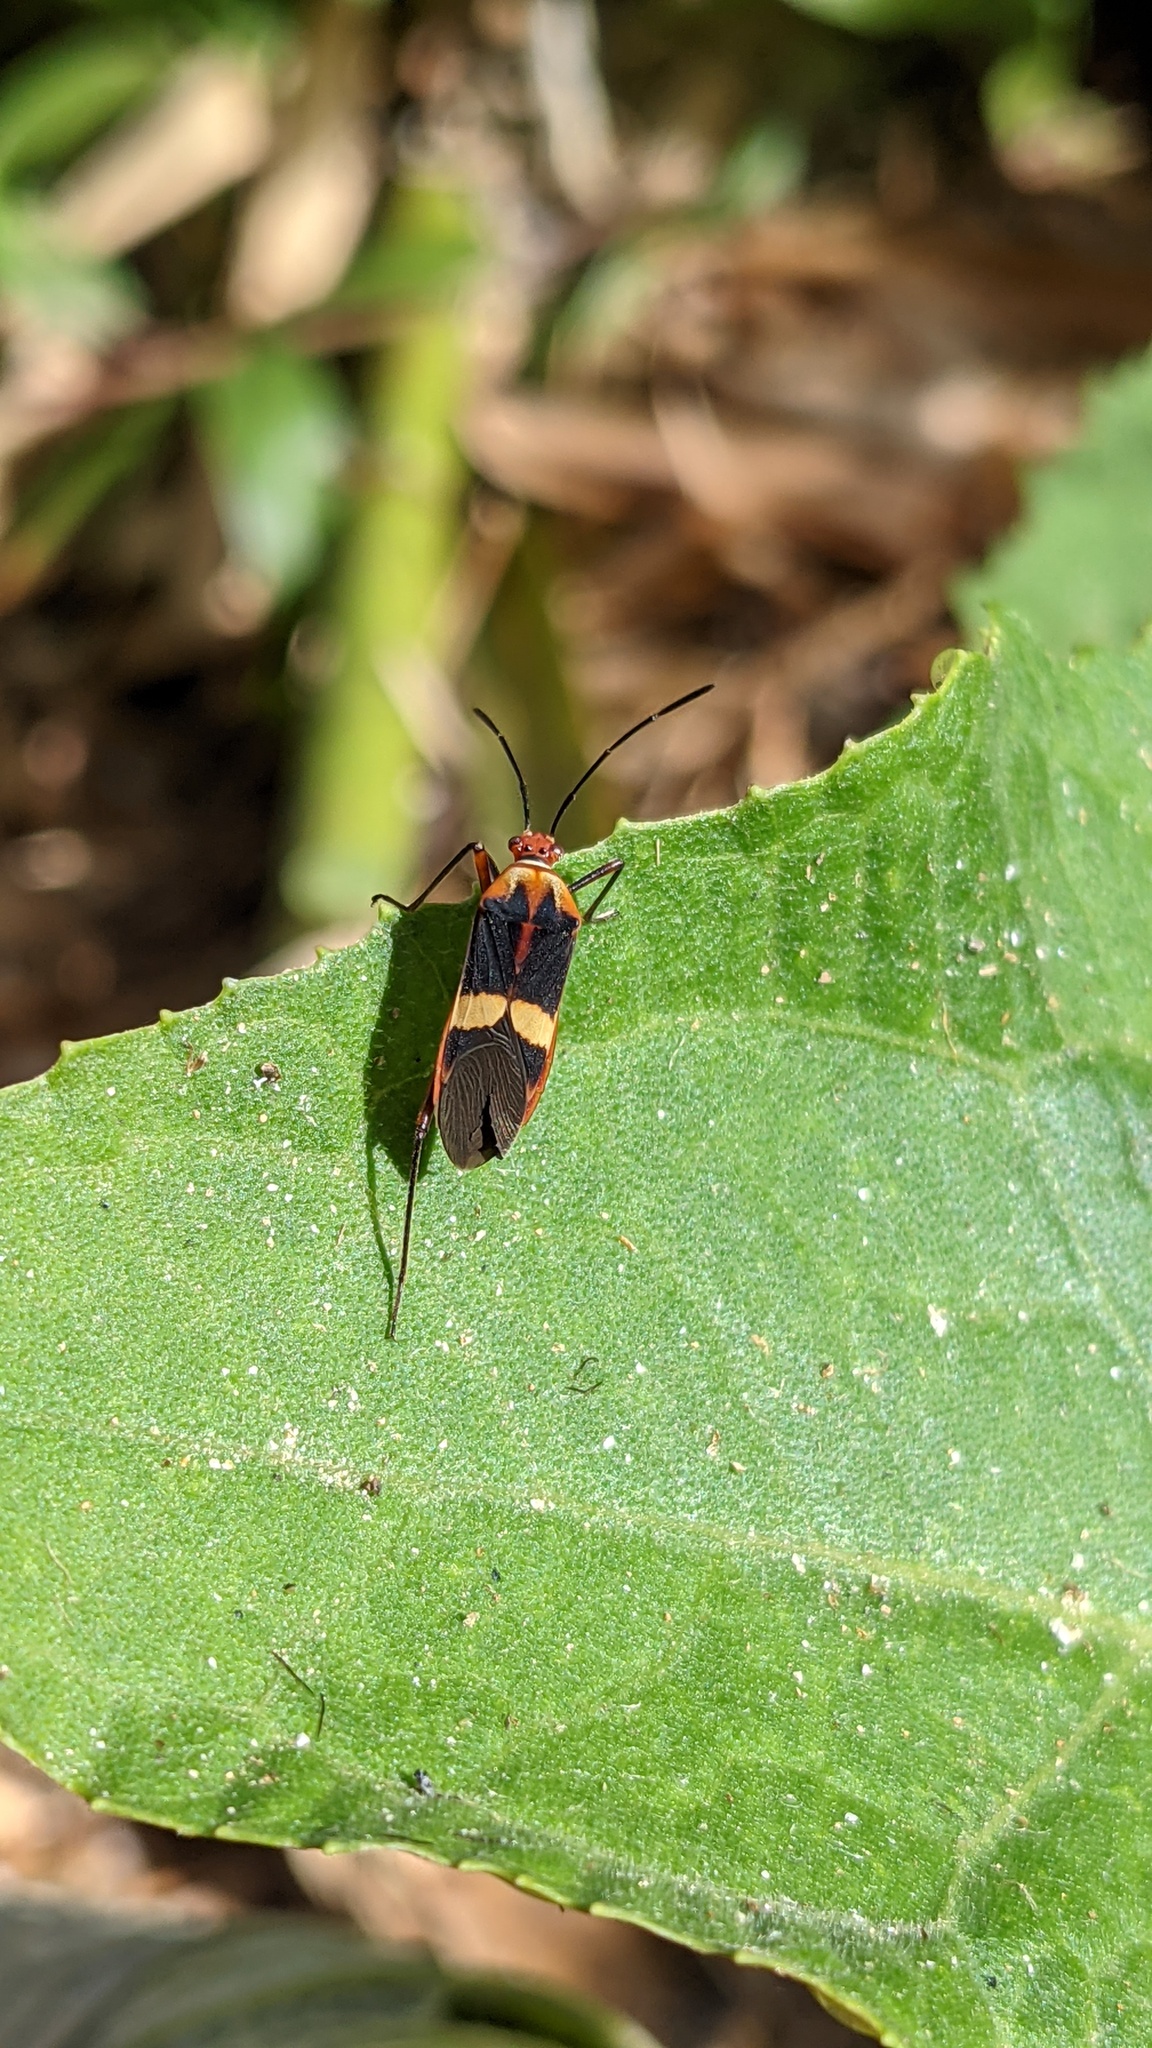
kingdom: Animalia
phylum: Arthropoda
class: Insecta
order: Hemiptera
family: Coreidae
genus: Hypselonotus
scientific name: Hypselonotus interruptus
